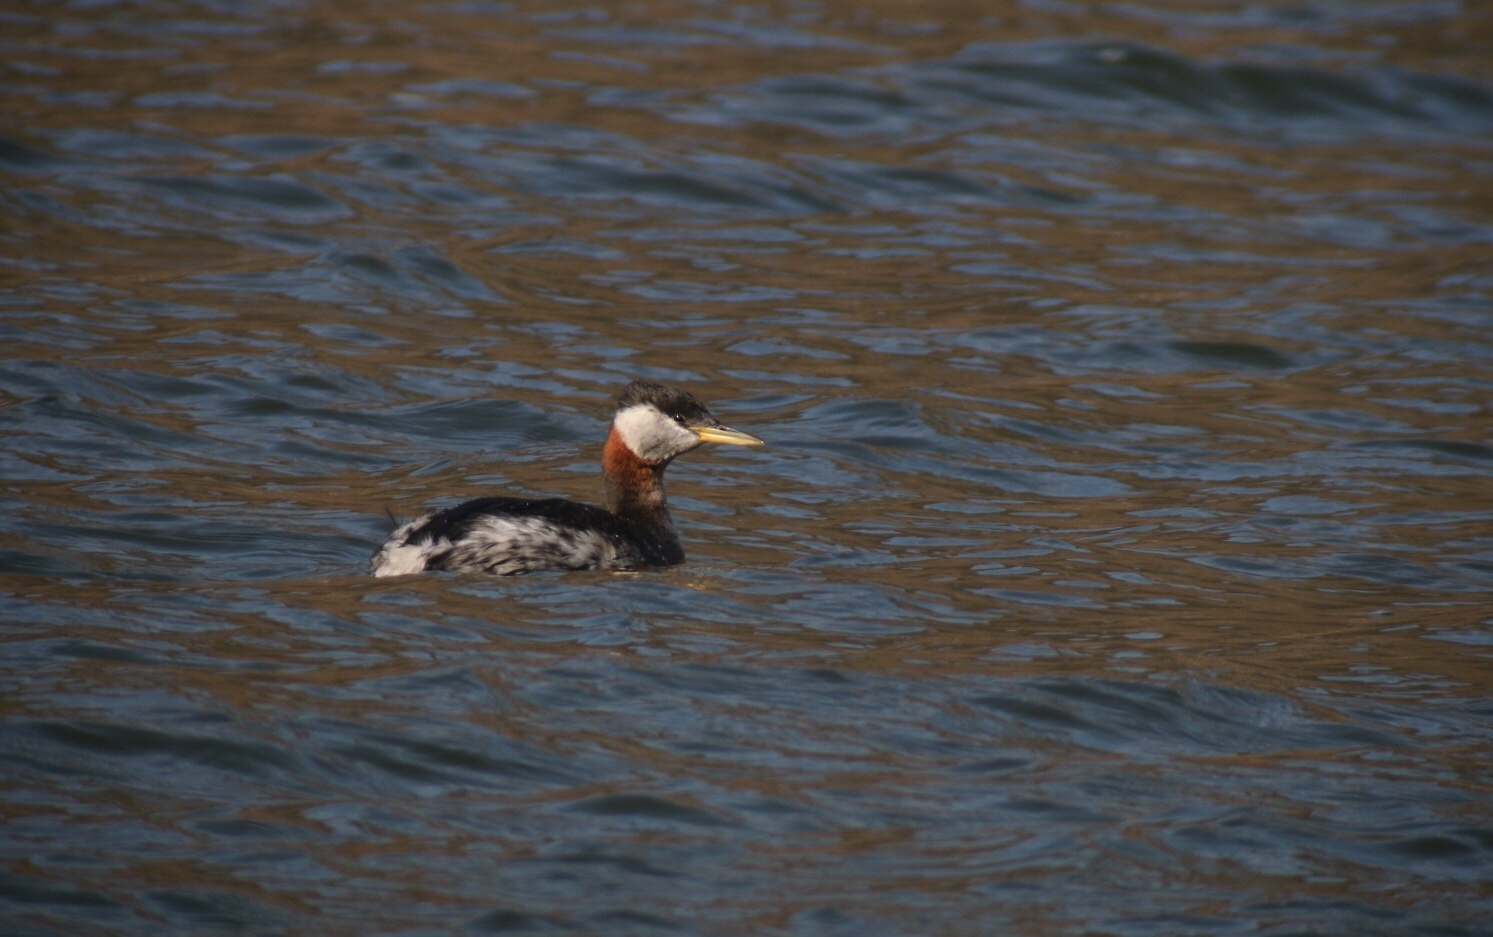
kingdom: Animalia
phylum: Chordata
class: Aves
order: Podicipediformes
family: Podicipedidae
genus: Podiceps
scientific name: Podiceps grisegena
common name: Red-necked grebe
